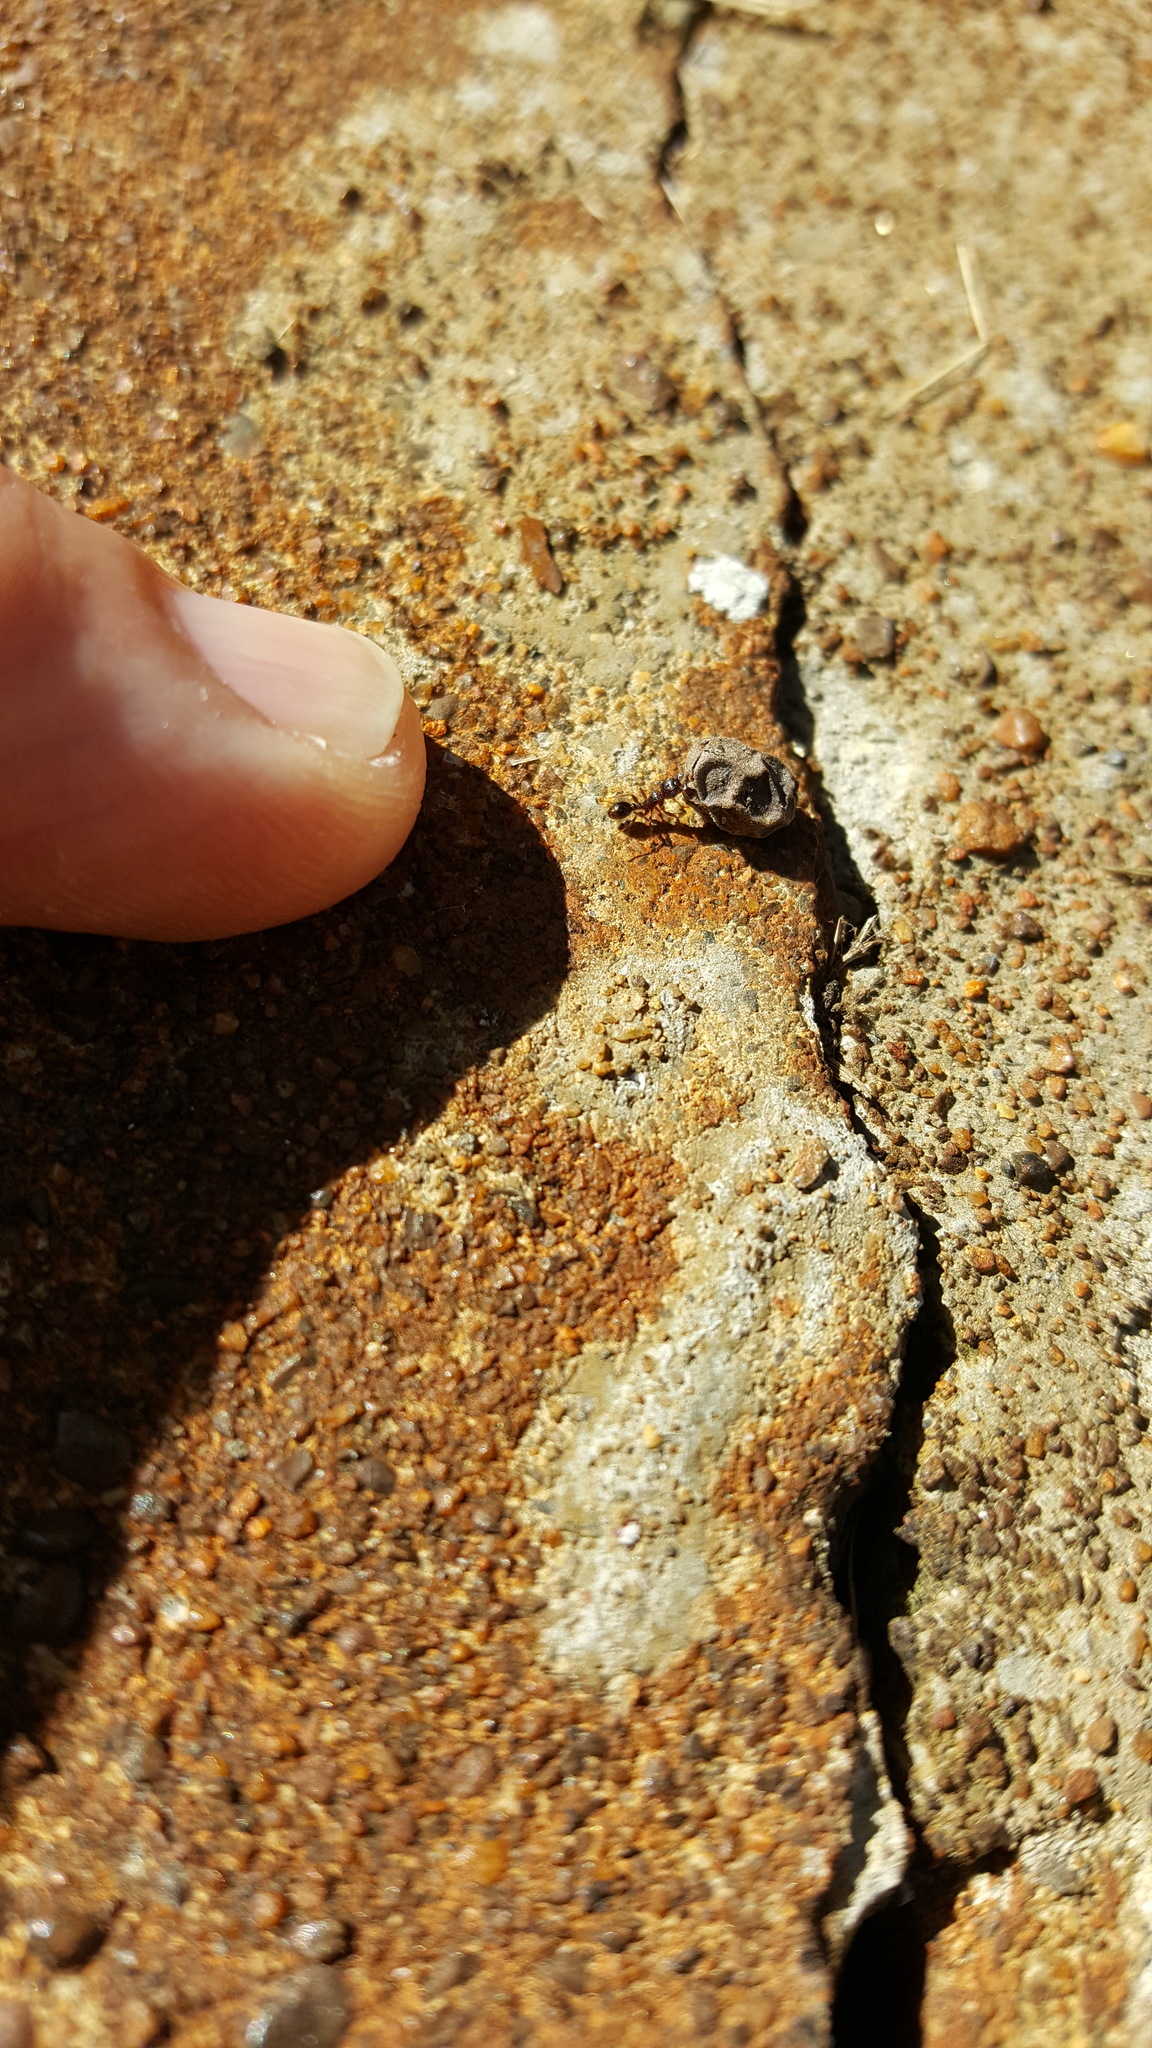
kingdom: Animalia
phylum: Arthropoda
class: Insecta
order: Hymenoptera
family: Formicidae
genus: Tetramorium
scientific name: Tetramorium immigrans
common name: Pavement ant
